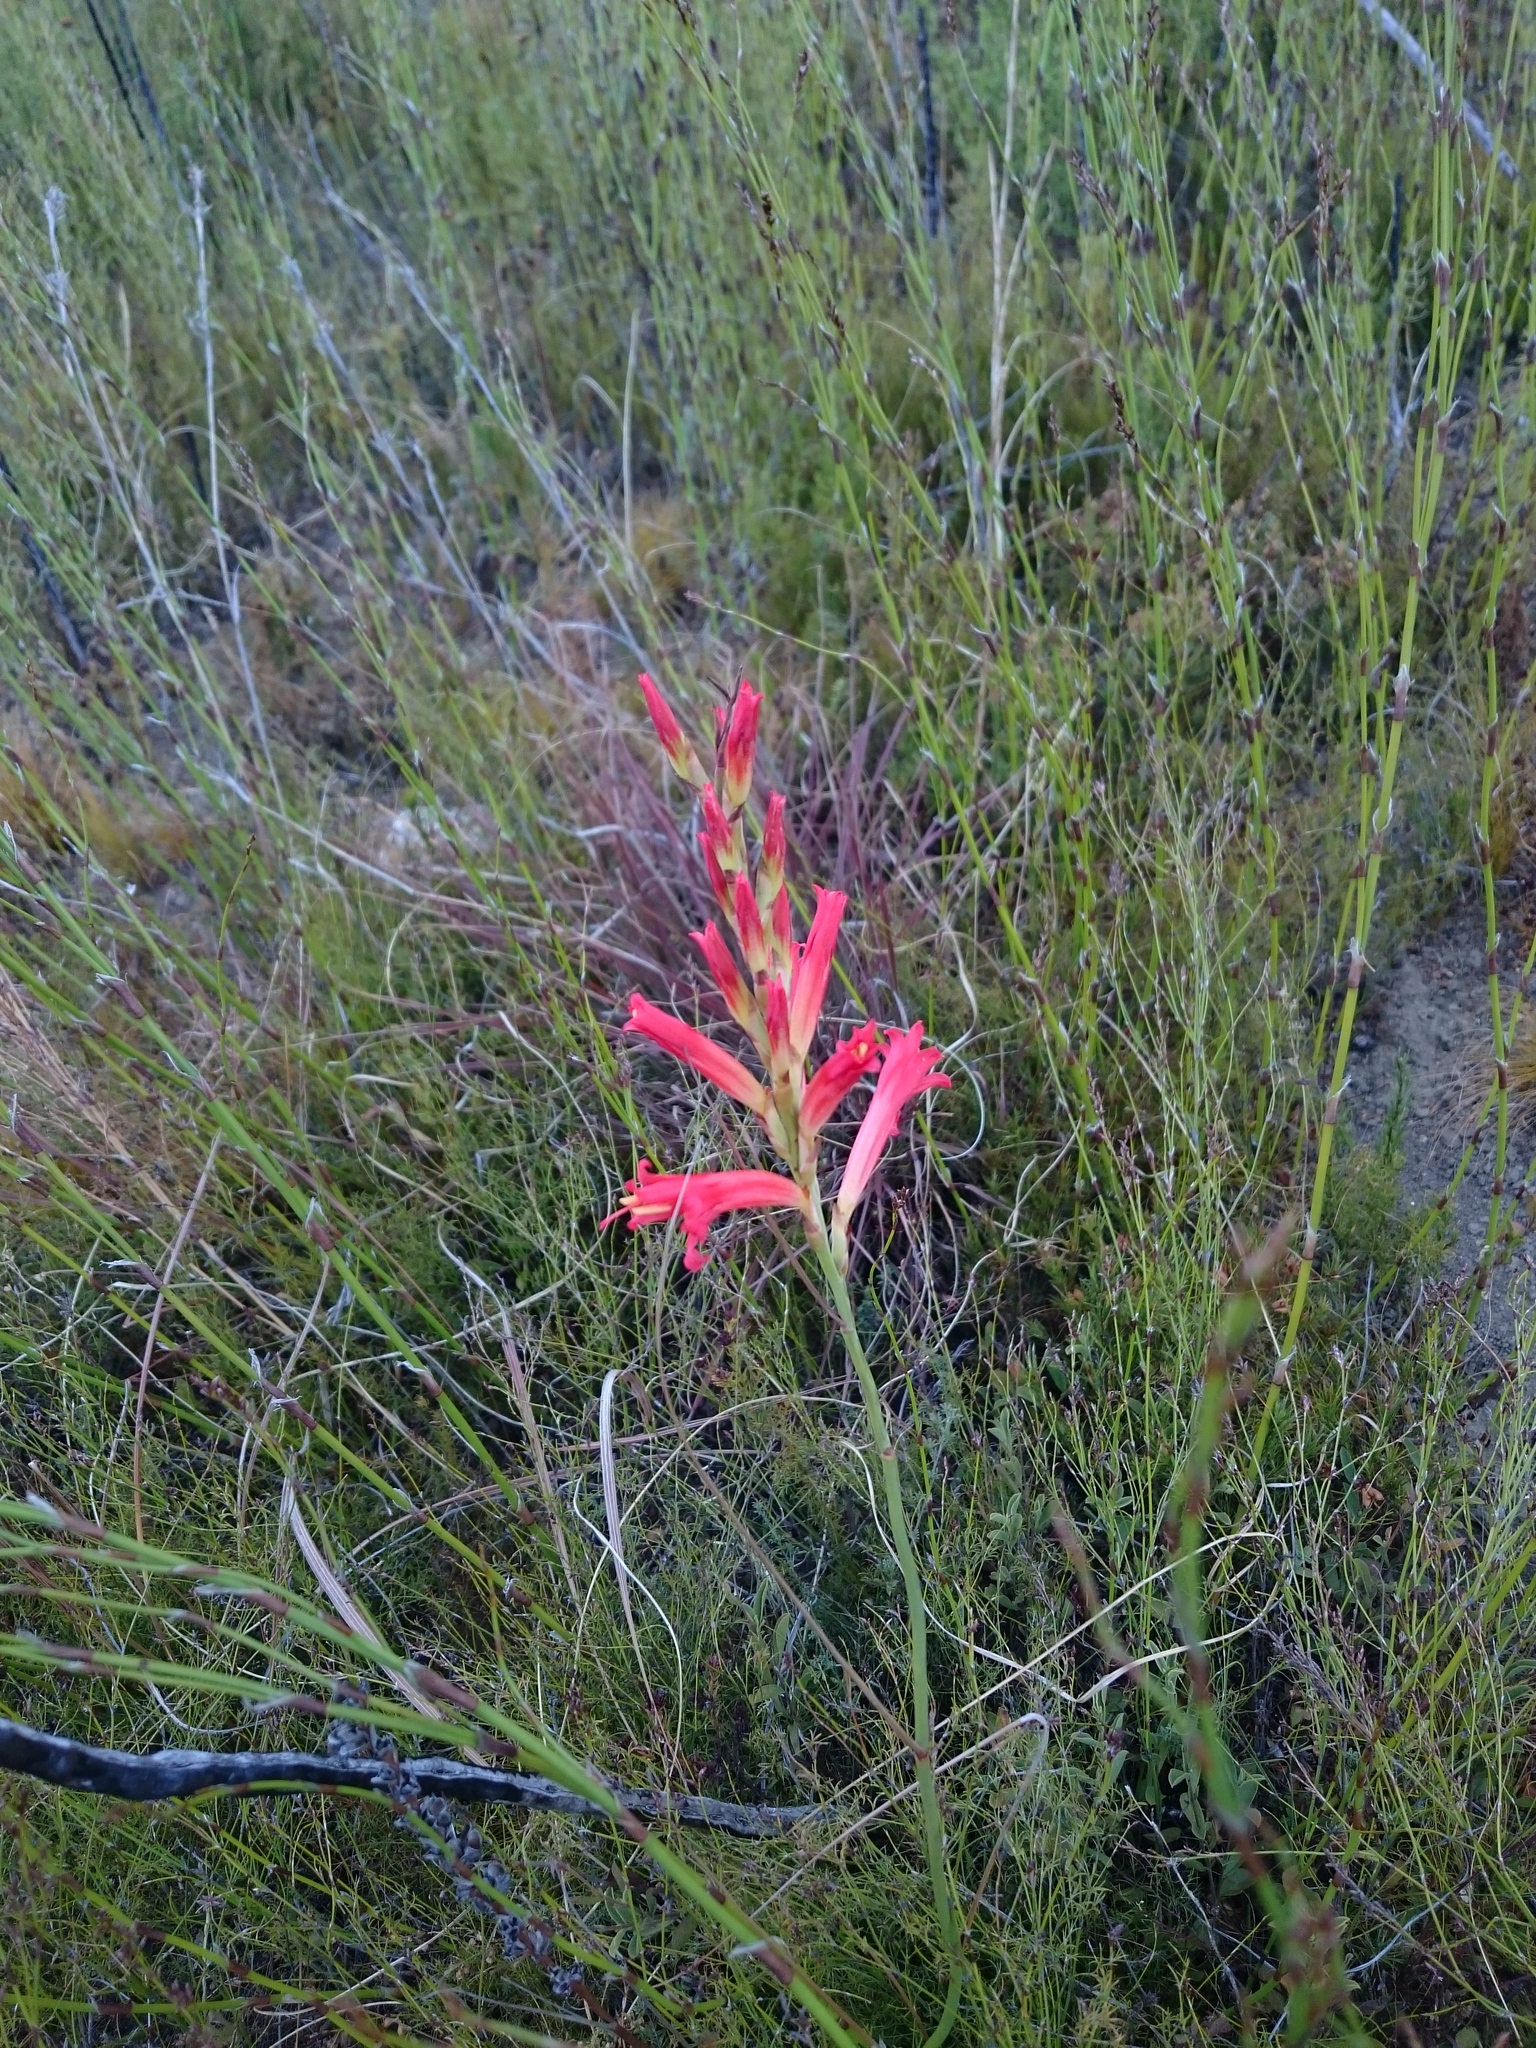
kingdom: Plantae
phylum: Tracheophyta
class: Liliopsida
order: Asparagales
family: Iridaceae
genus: Tritoniopsis
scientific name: Tritoniopsis triticea
